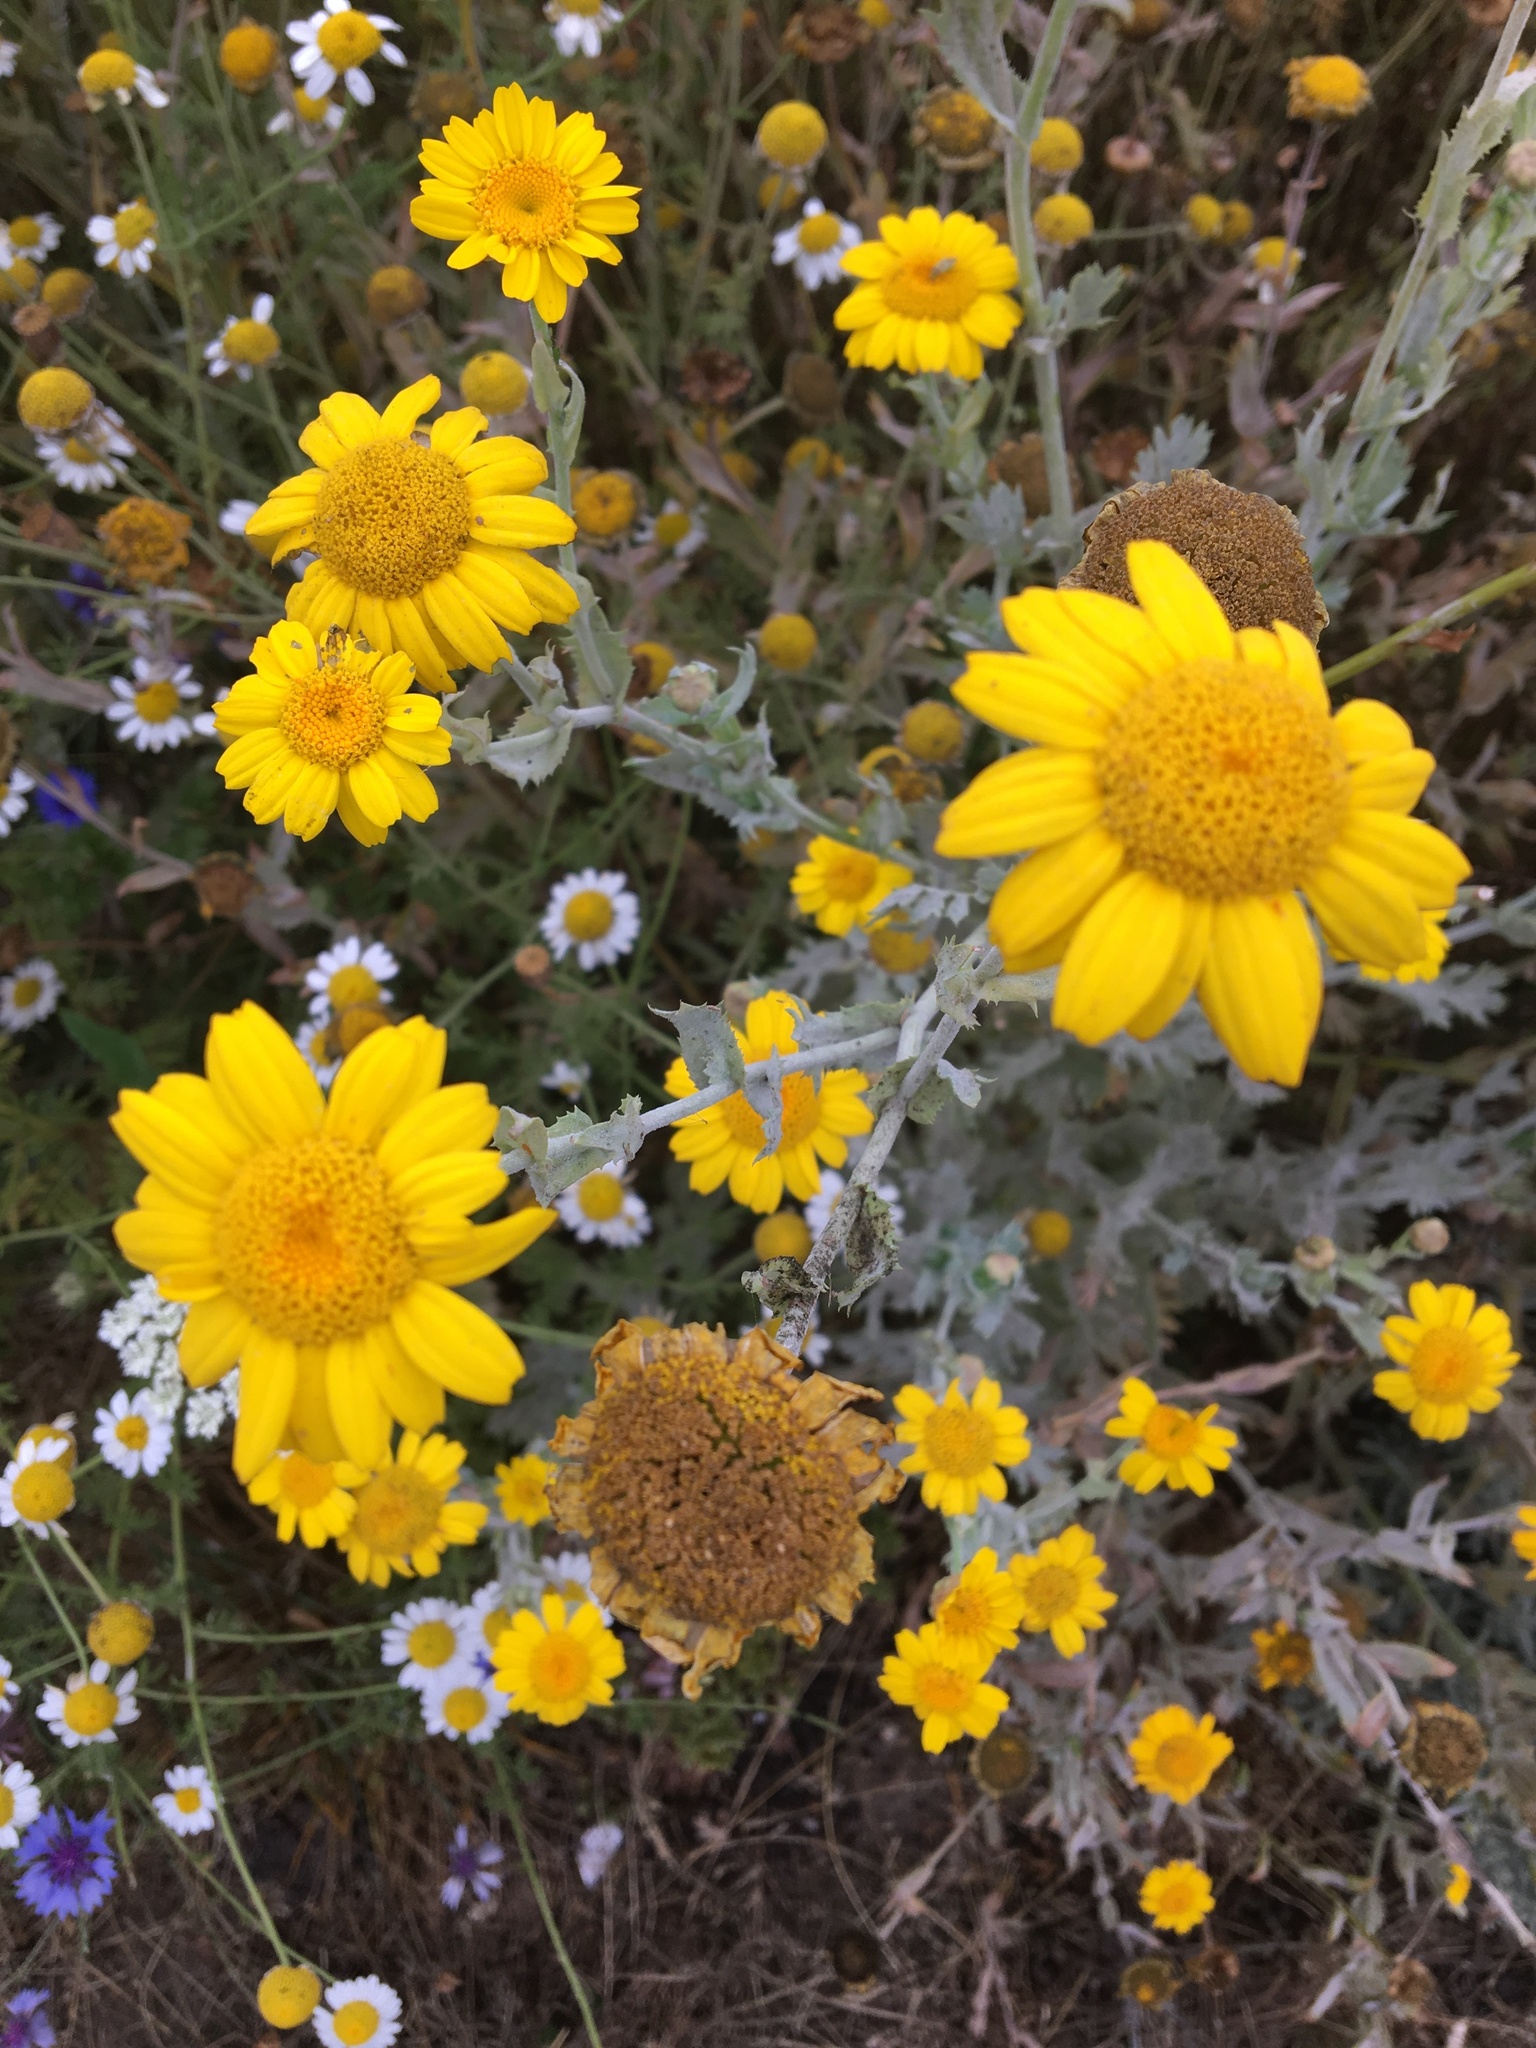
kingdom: Plantae
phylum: Tracheophyta
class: Magnoliopsida
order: Asterales
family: Asteraceae
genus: Glebionis
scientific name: Glebionis segetum
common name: Corndaisy
